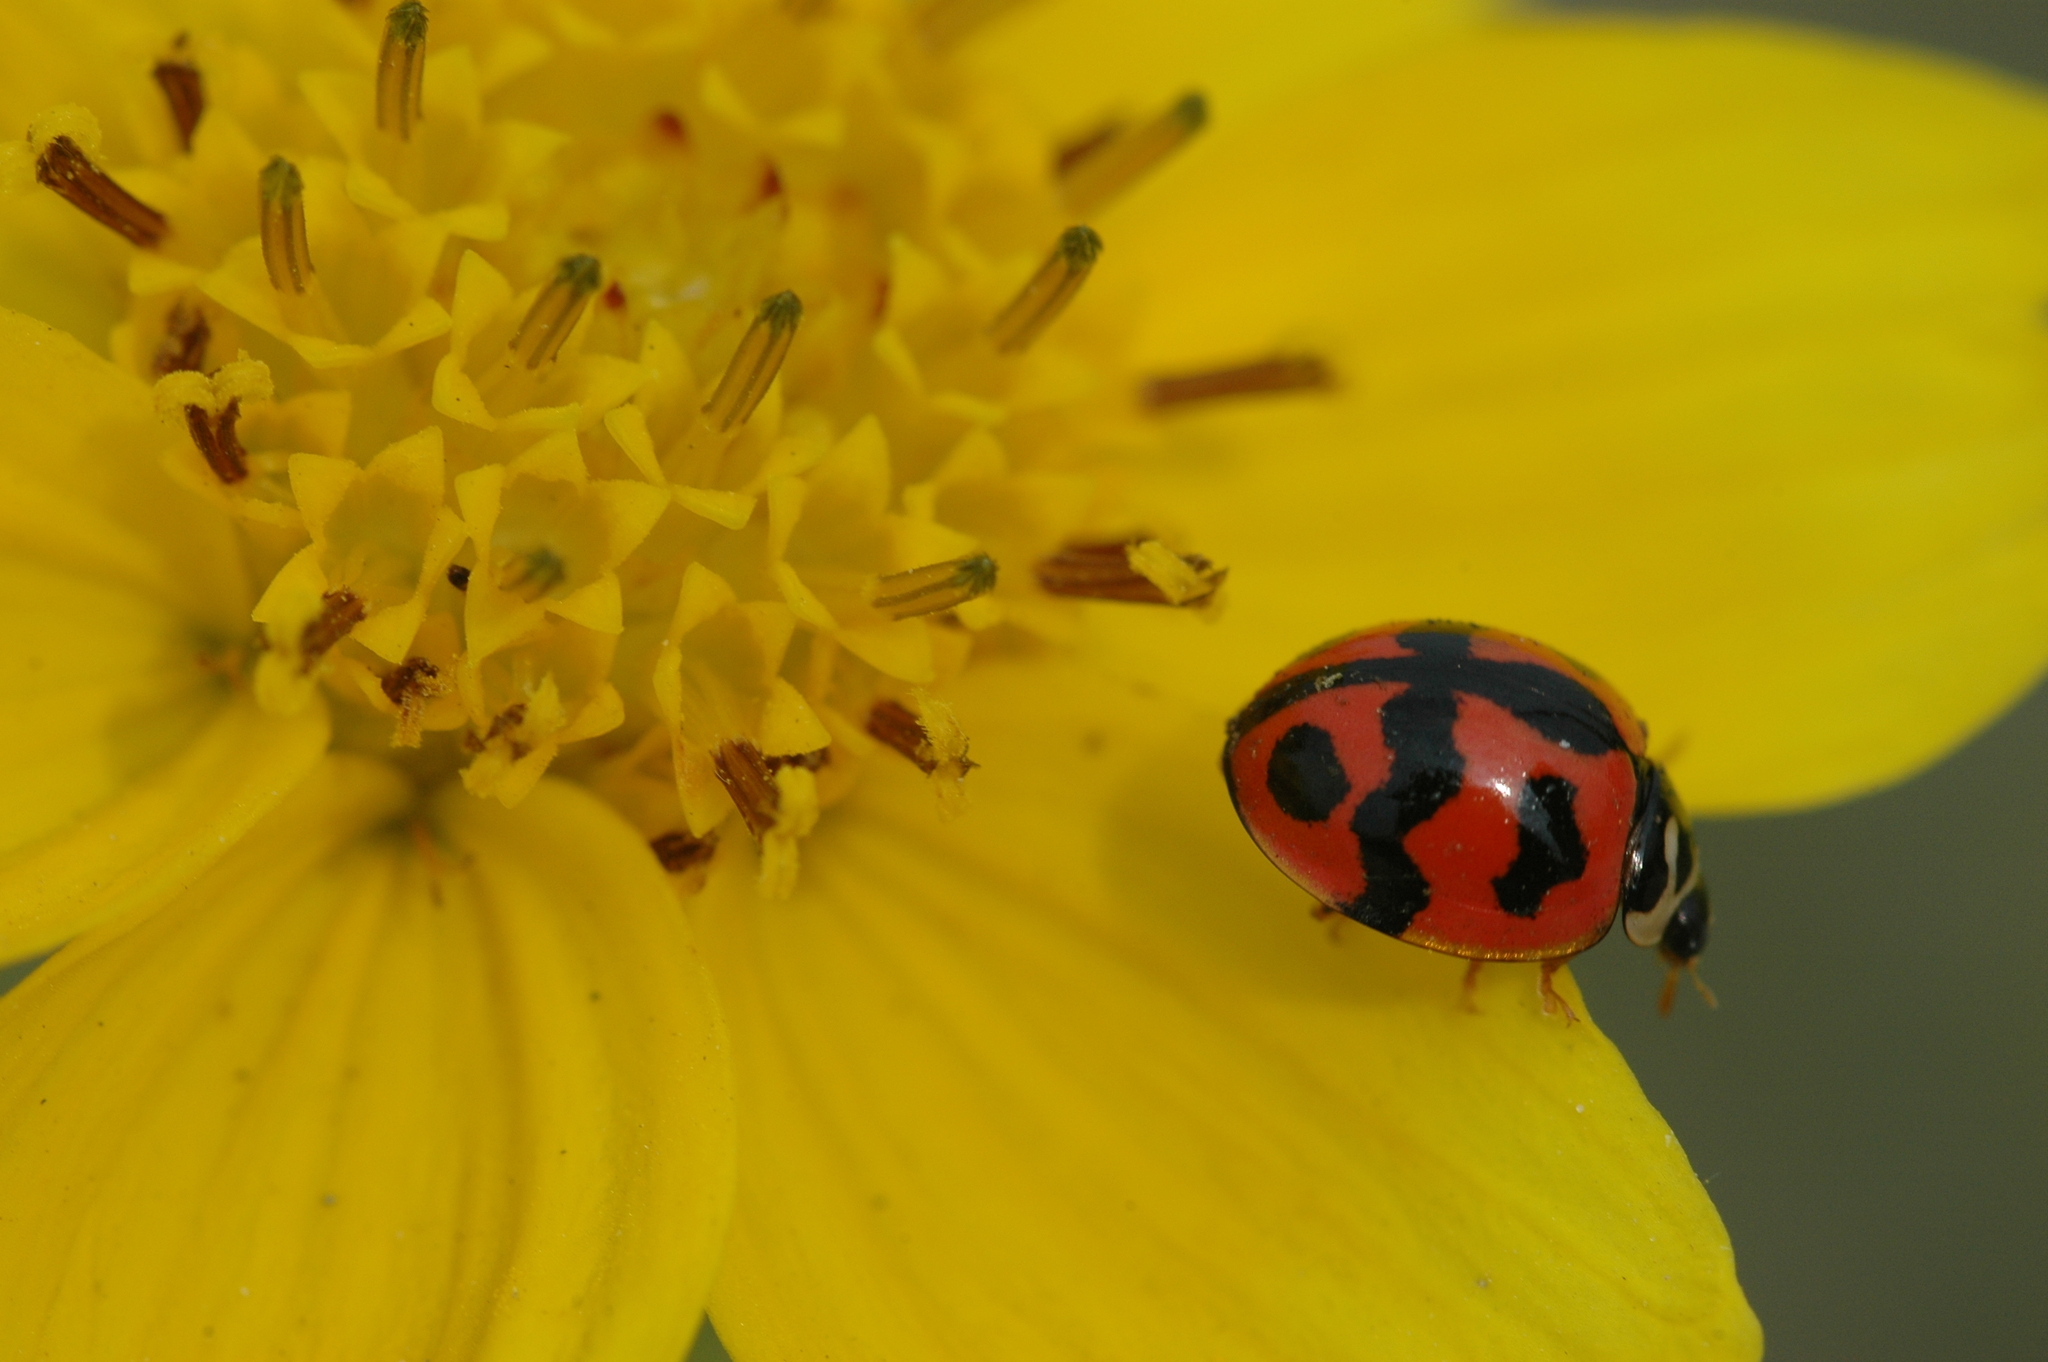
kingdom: Animalia
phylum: Arthropoda
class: Insecta
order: Coleoptera
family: Coccinellidae
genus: Cheilomenes
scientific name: Cheilomenes sexmaculata
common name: Ladybird beetle
